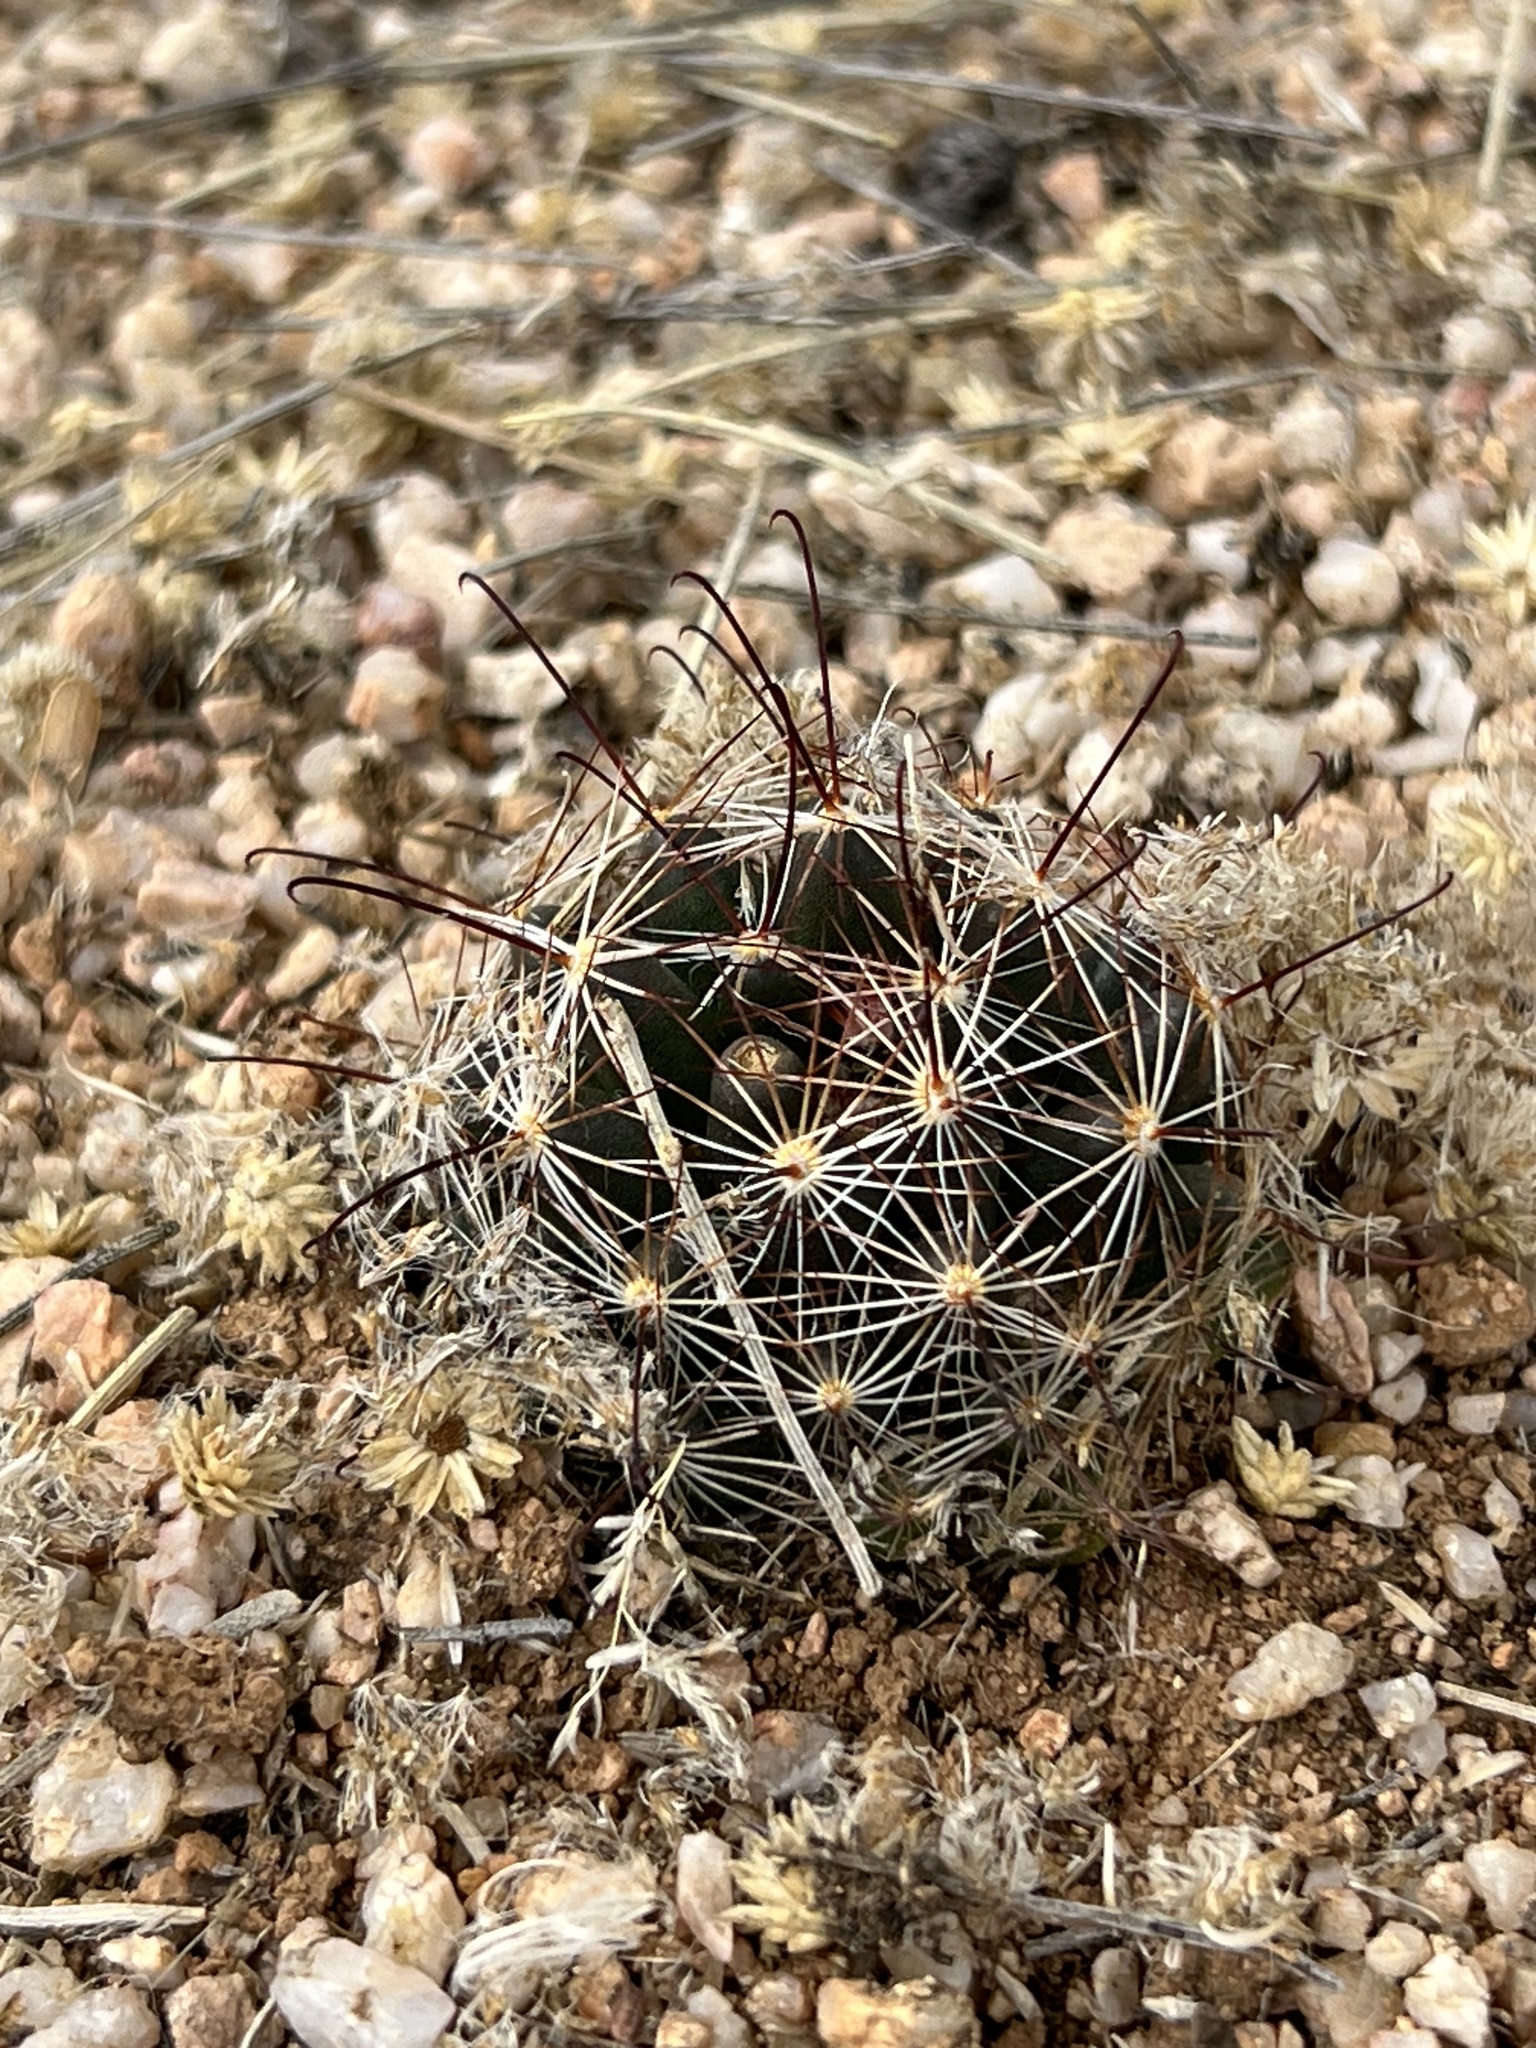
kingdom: Plantae
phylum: Tracheophyta
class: Magnoliopsida
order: Caryophyllales
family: Cactaceae
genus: Cochemiea
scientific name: Cochemiea wrightii
